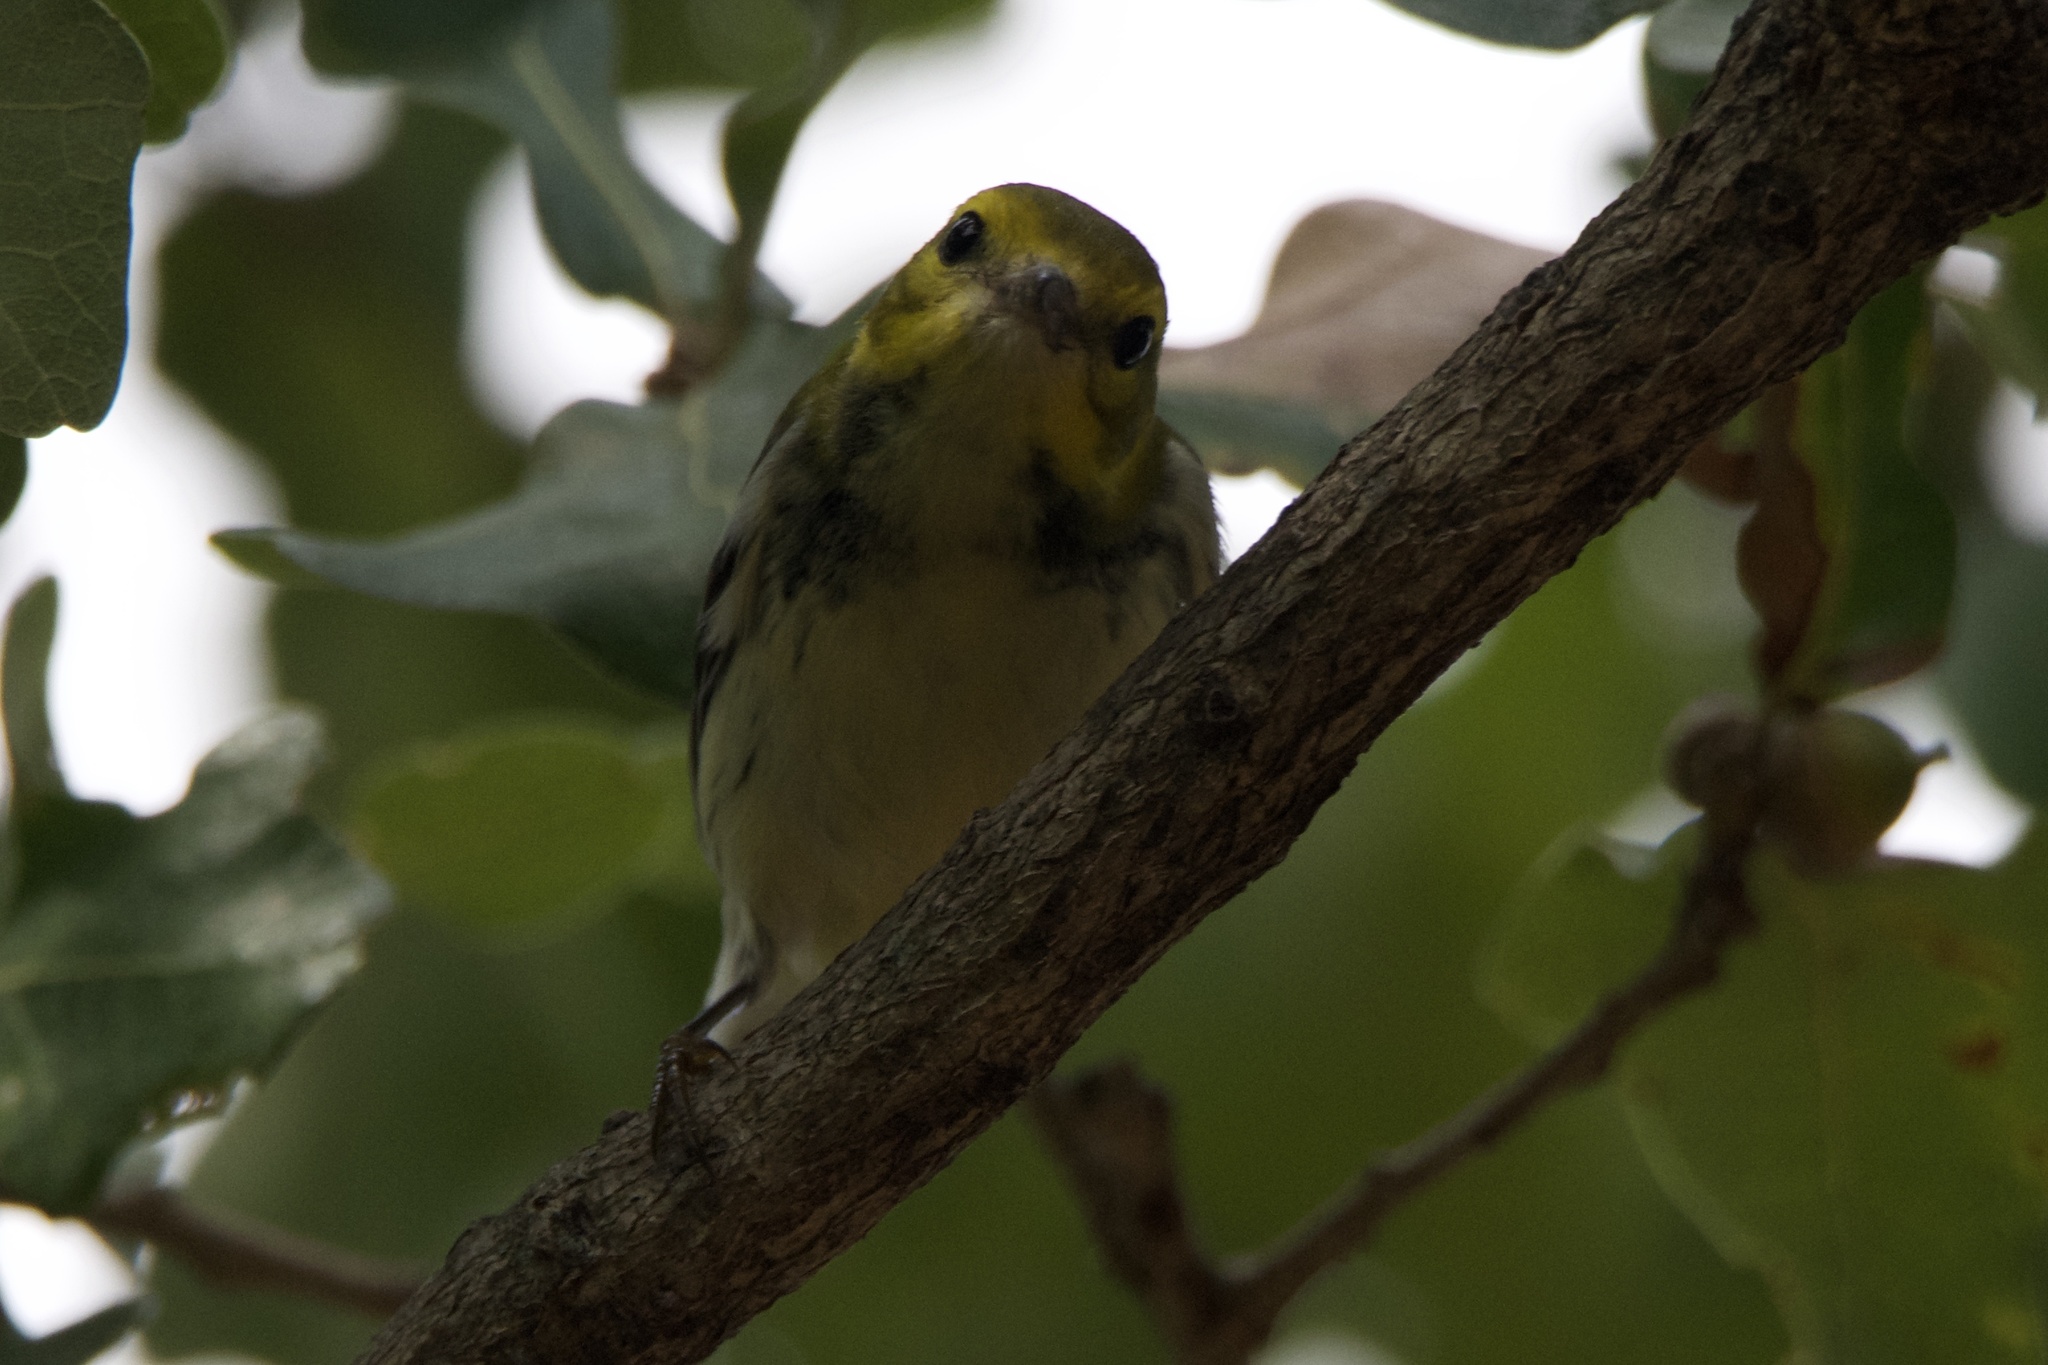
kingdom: Animalia
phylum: Chordata
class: Aves
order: Passeriformes
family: Parulidae
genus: Setophaga
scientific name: Setophaga virens
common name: Black-throated green warbler
